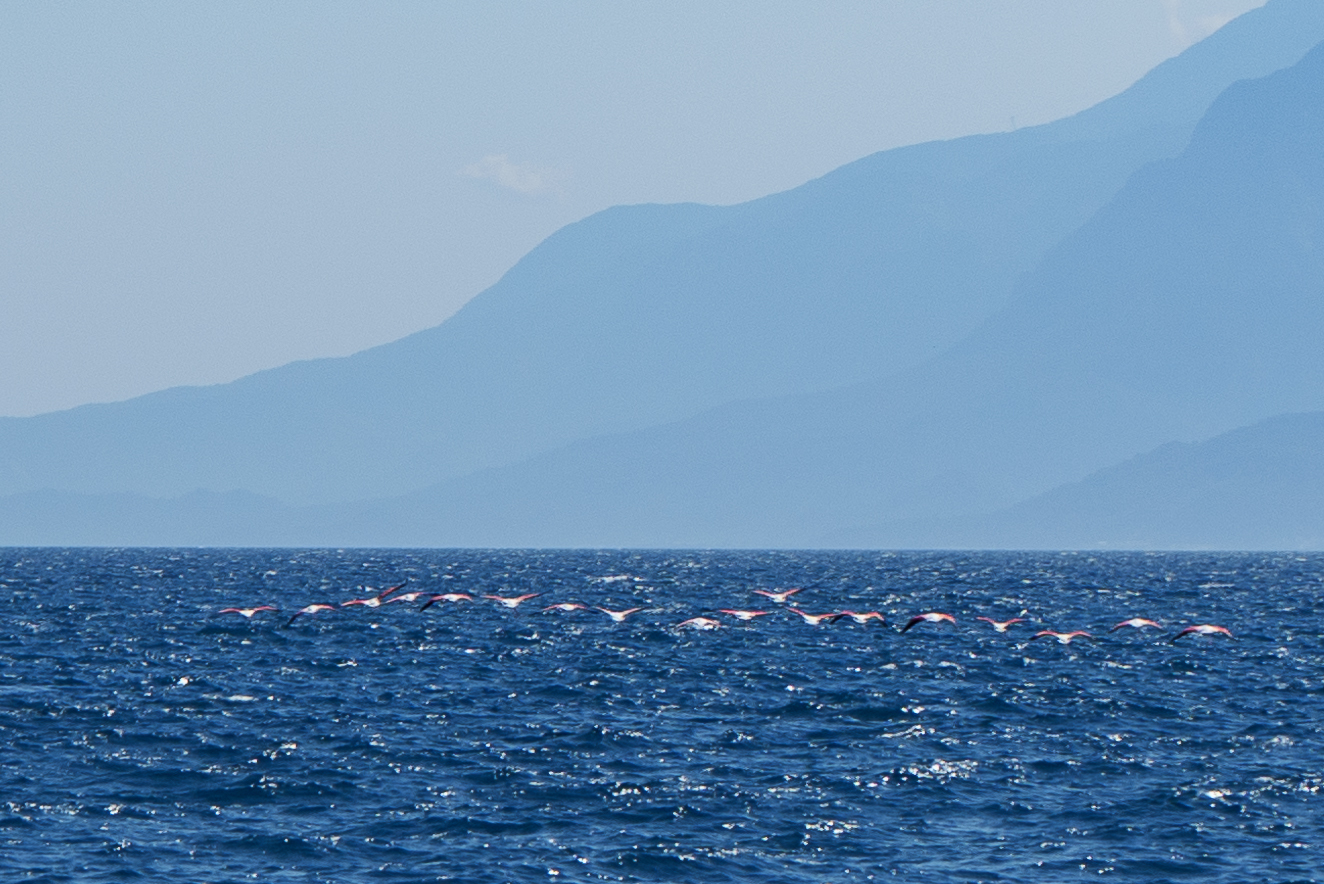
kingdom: Animalia
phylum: Chordata
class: Aves
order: Phoenicopteriformes
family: Phoenicopteridae
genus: Phoenicopterus
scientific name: Phoenicopterus roseus
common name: Greater flamingo
